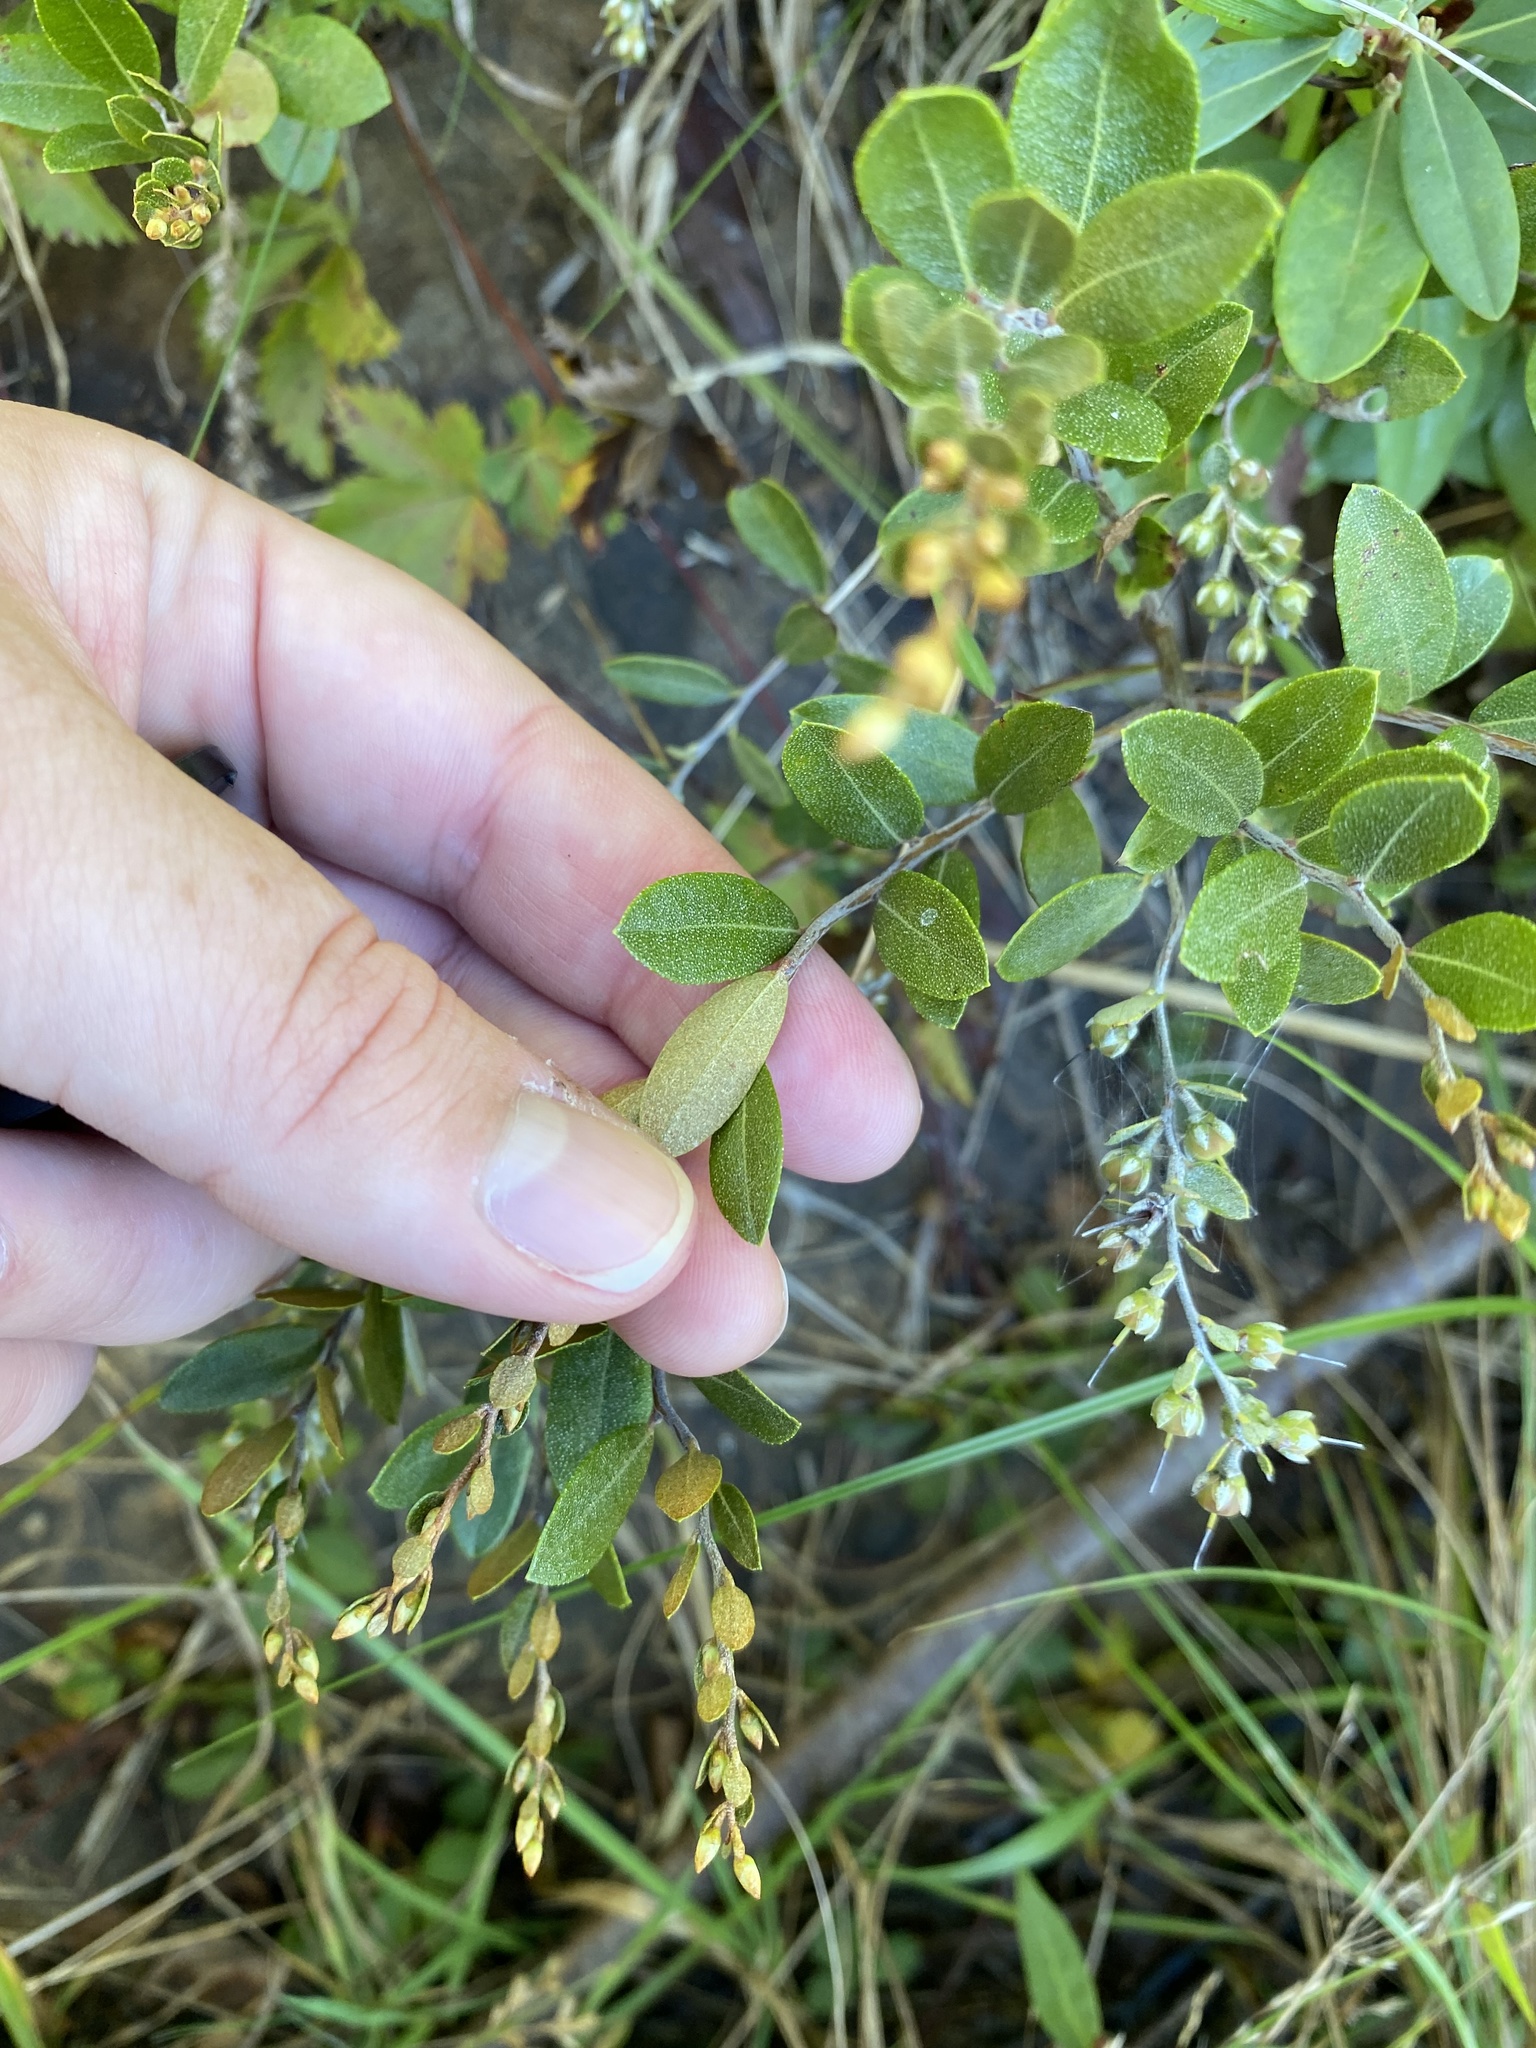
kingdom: Plantae
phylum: Tracheophyta
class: Magnoliopsida
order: Ericales
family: Ericaceae
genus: Chamaedaphne
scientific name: Chamaedaphne calyculata
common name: Leatherleaf
